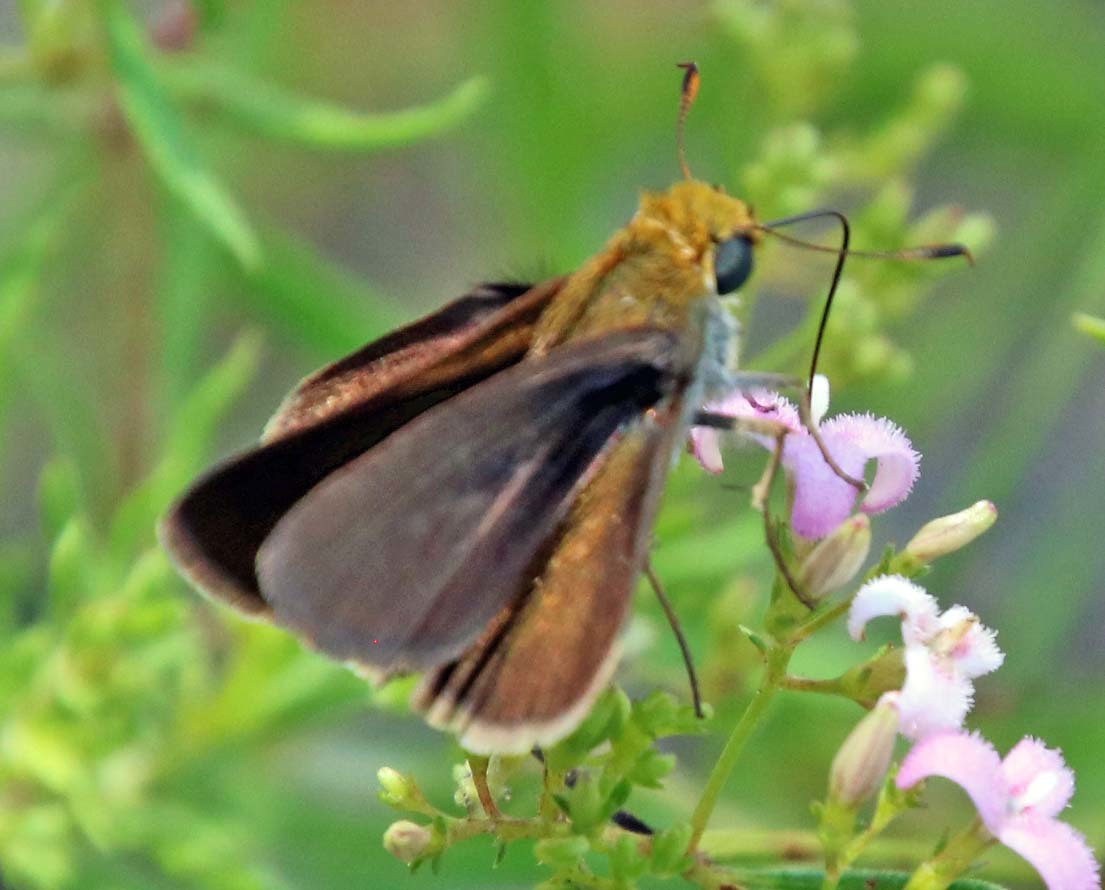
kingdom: Animalia
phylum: Arthropoda
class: Insecta
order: Lepidoptera
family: Hesperiidae
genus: Euphyes
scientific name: Euphyes vestris
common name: Dun skipper
